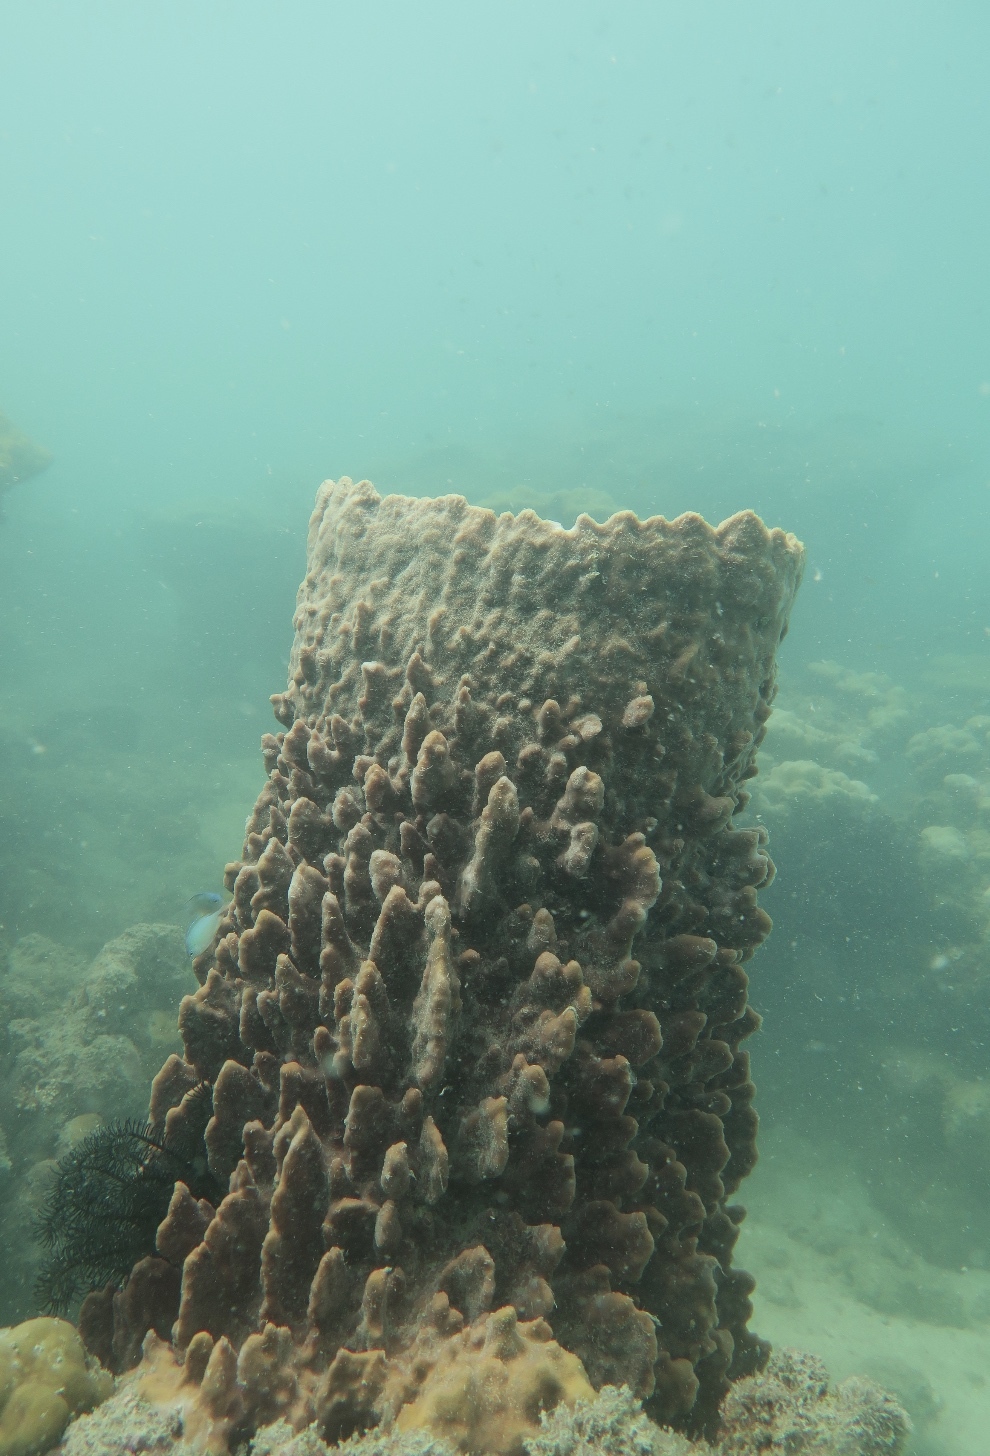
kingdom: Animalia
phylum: Porifera
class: Demospongiae
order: Haplosclerida
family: Petrosiidae
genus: Xestospongia
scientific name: Xestospongia testudinaria
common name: Barrel sponge
